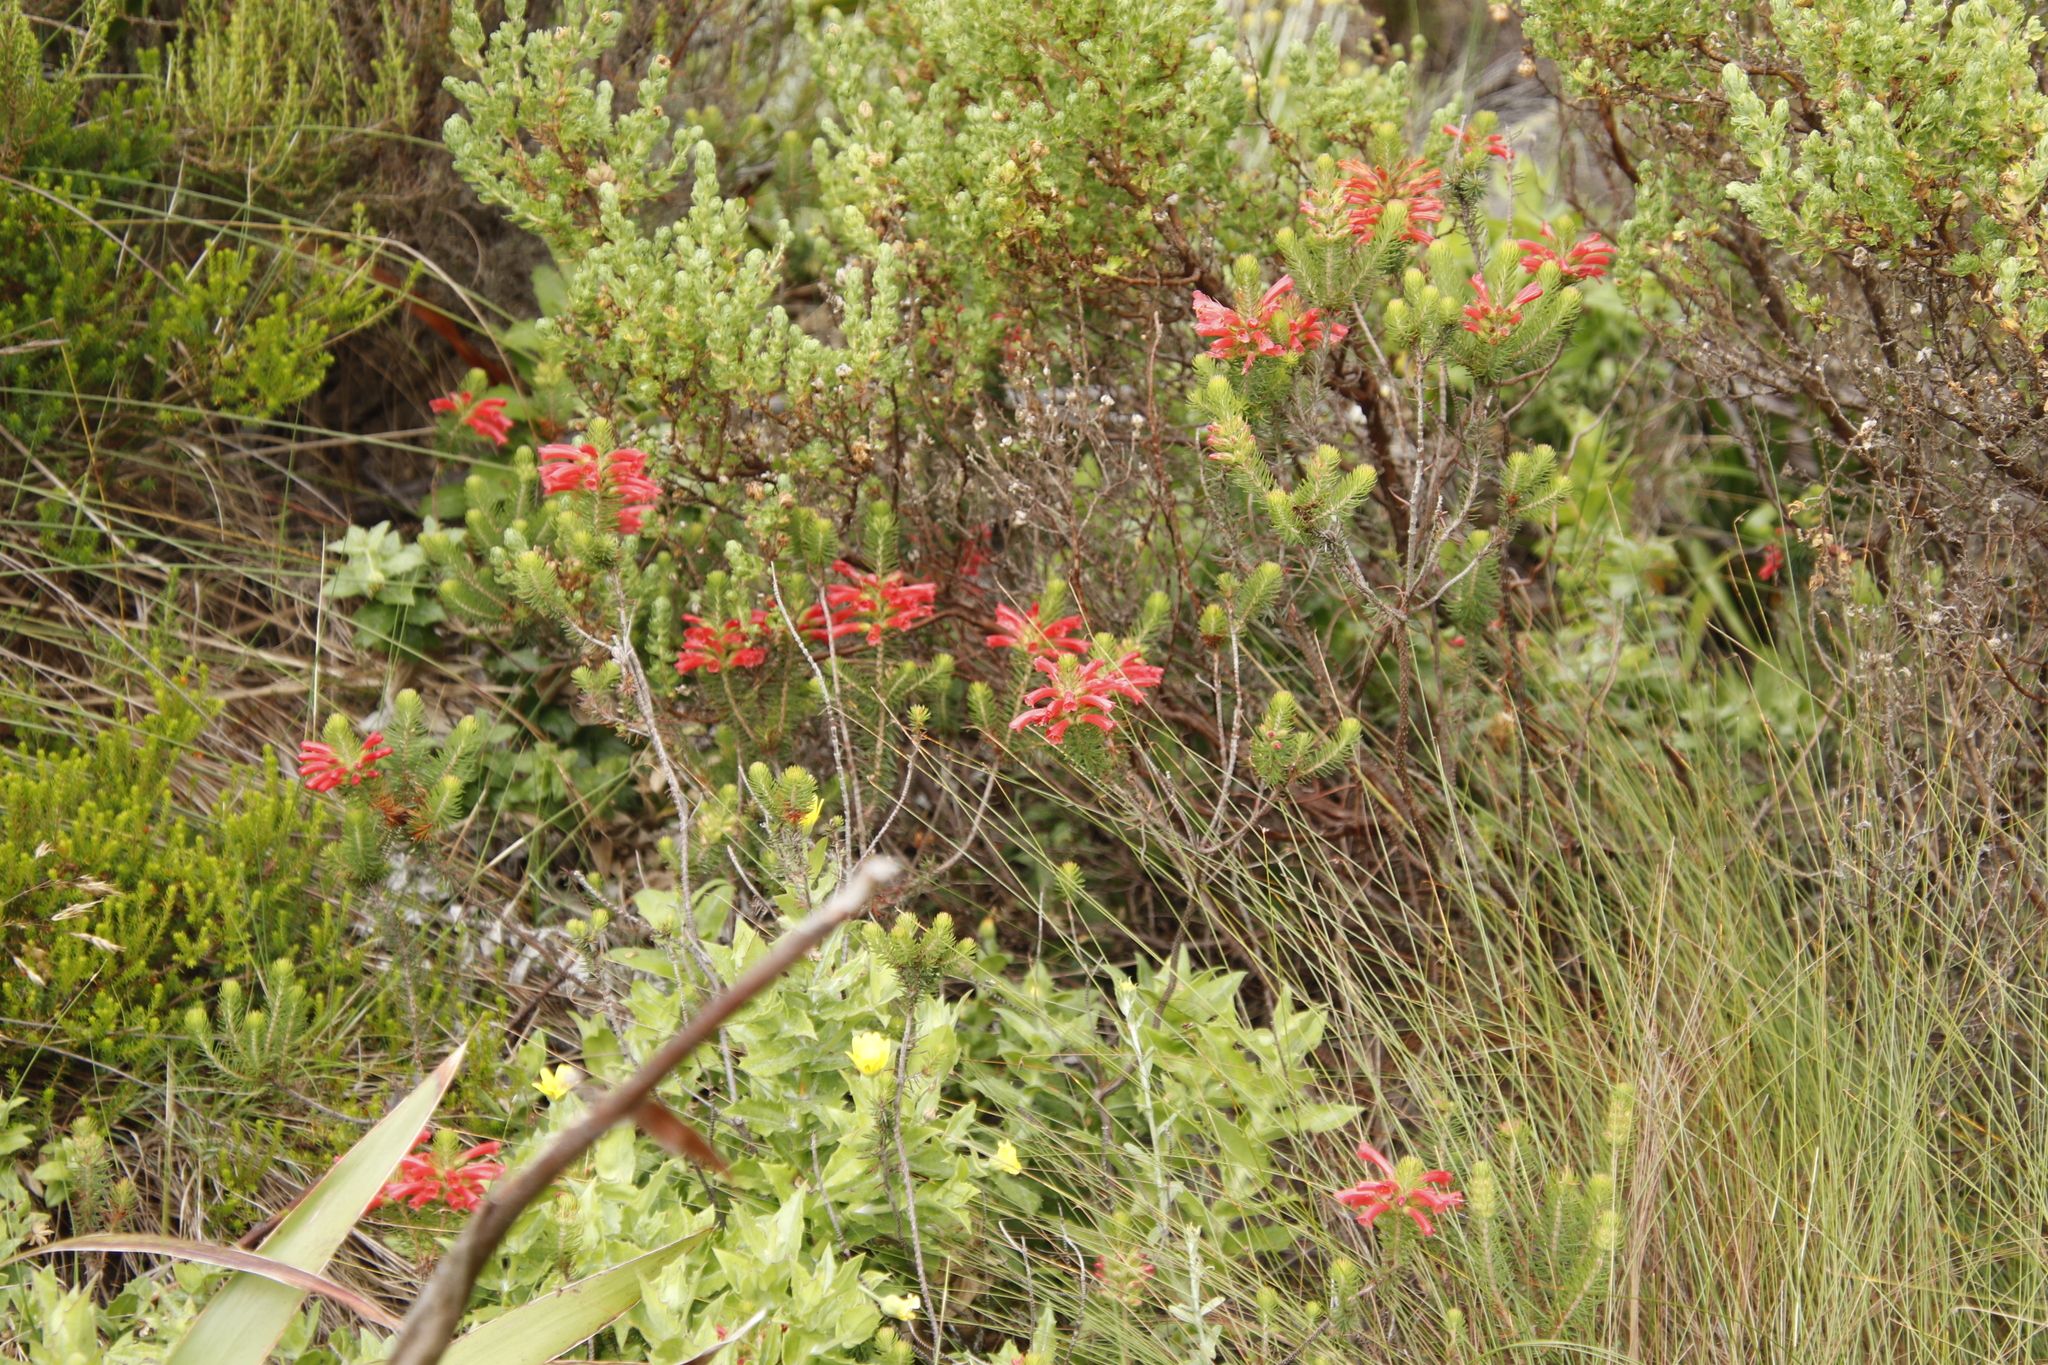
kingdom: Plantae
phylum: Tracheophyta
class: Magnoliopsida
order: Ericales
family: Ericaceae
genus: Erica
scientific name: Erica abietina
